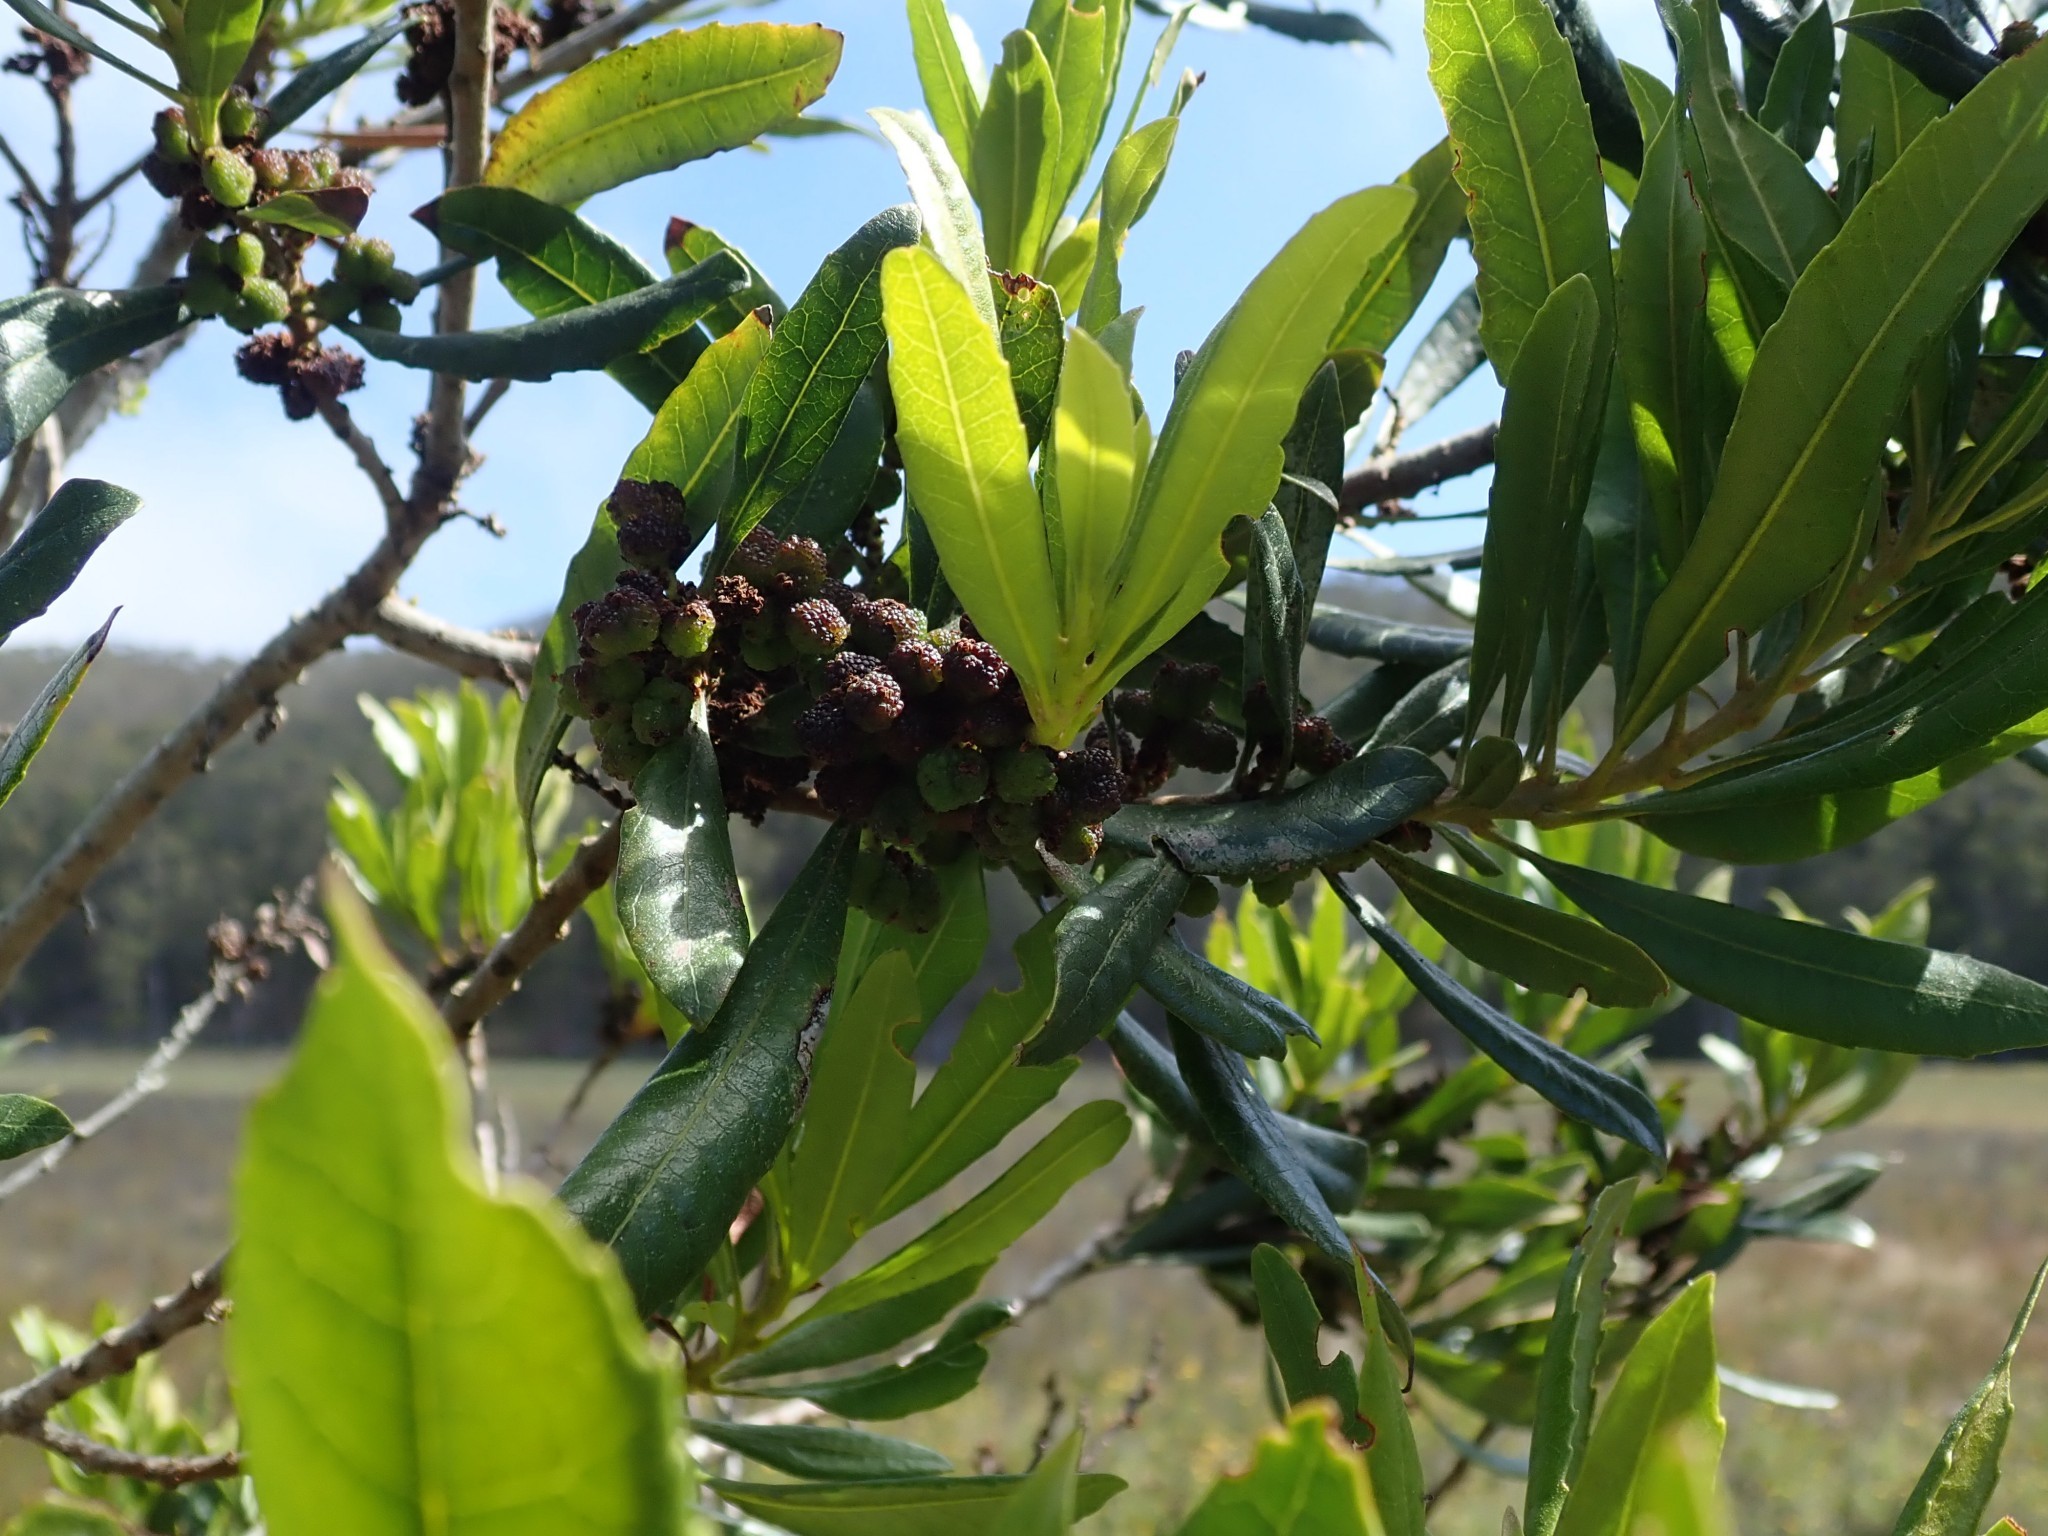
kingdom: Plantae
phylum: Tracheophyta
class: Magnoliopsida
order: Fagales
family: Myricaceae
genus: Morella
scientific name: Morella californica
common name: California wax-myrtle
